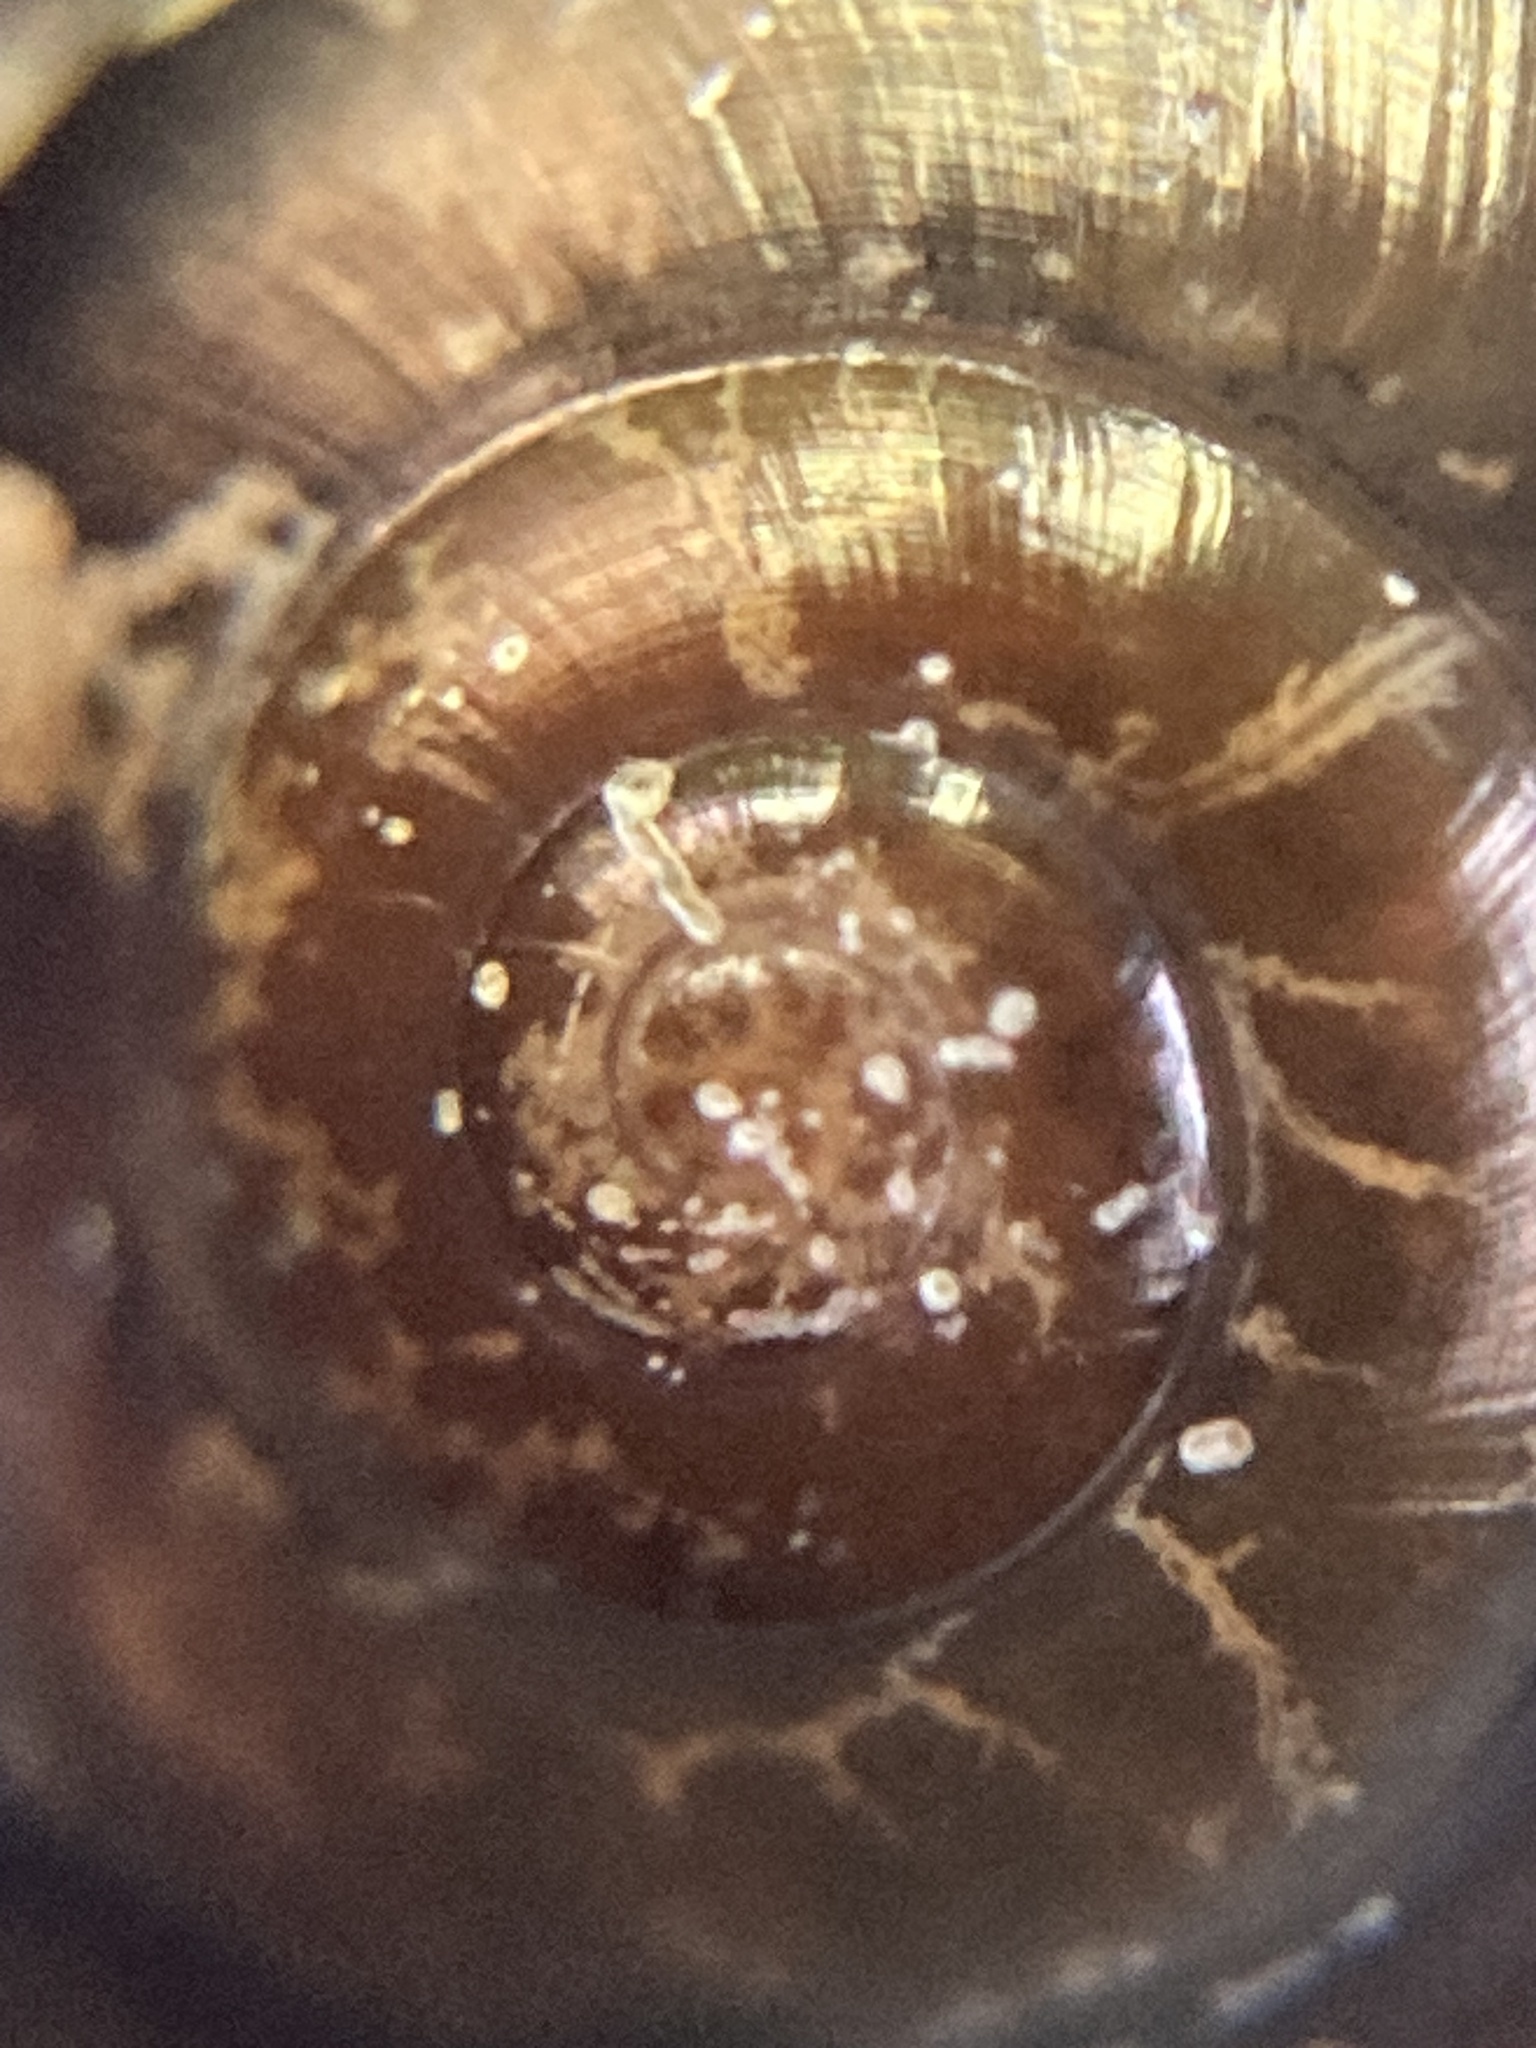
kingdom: Animalia
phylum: Mollusca
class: Gastropoda
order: Stylommatophora
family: Helicarionidae
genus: Nitor
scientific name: Nitor circumcinctus
